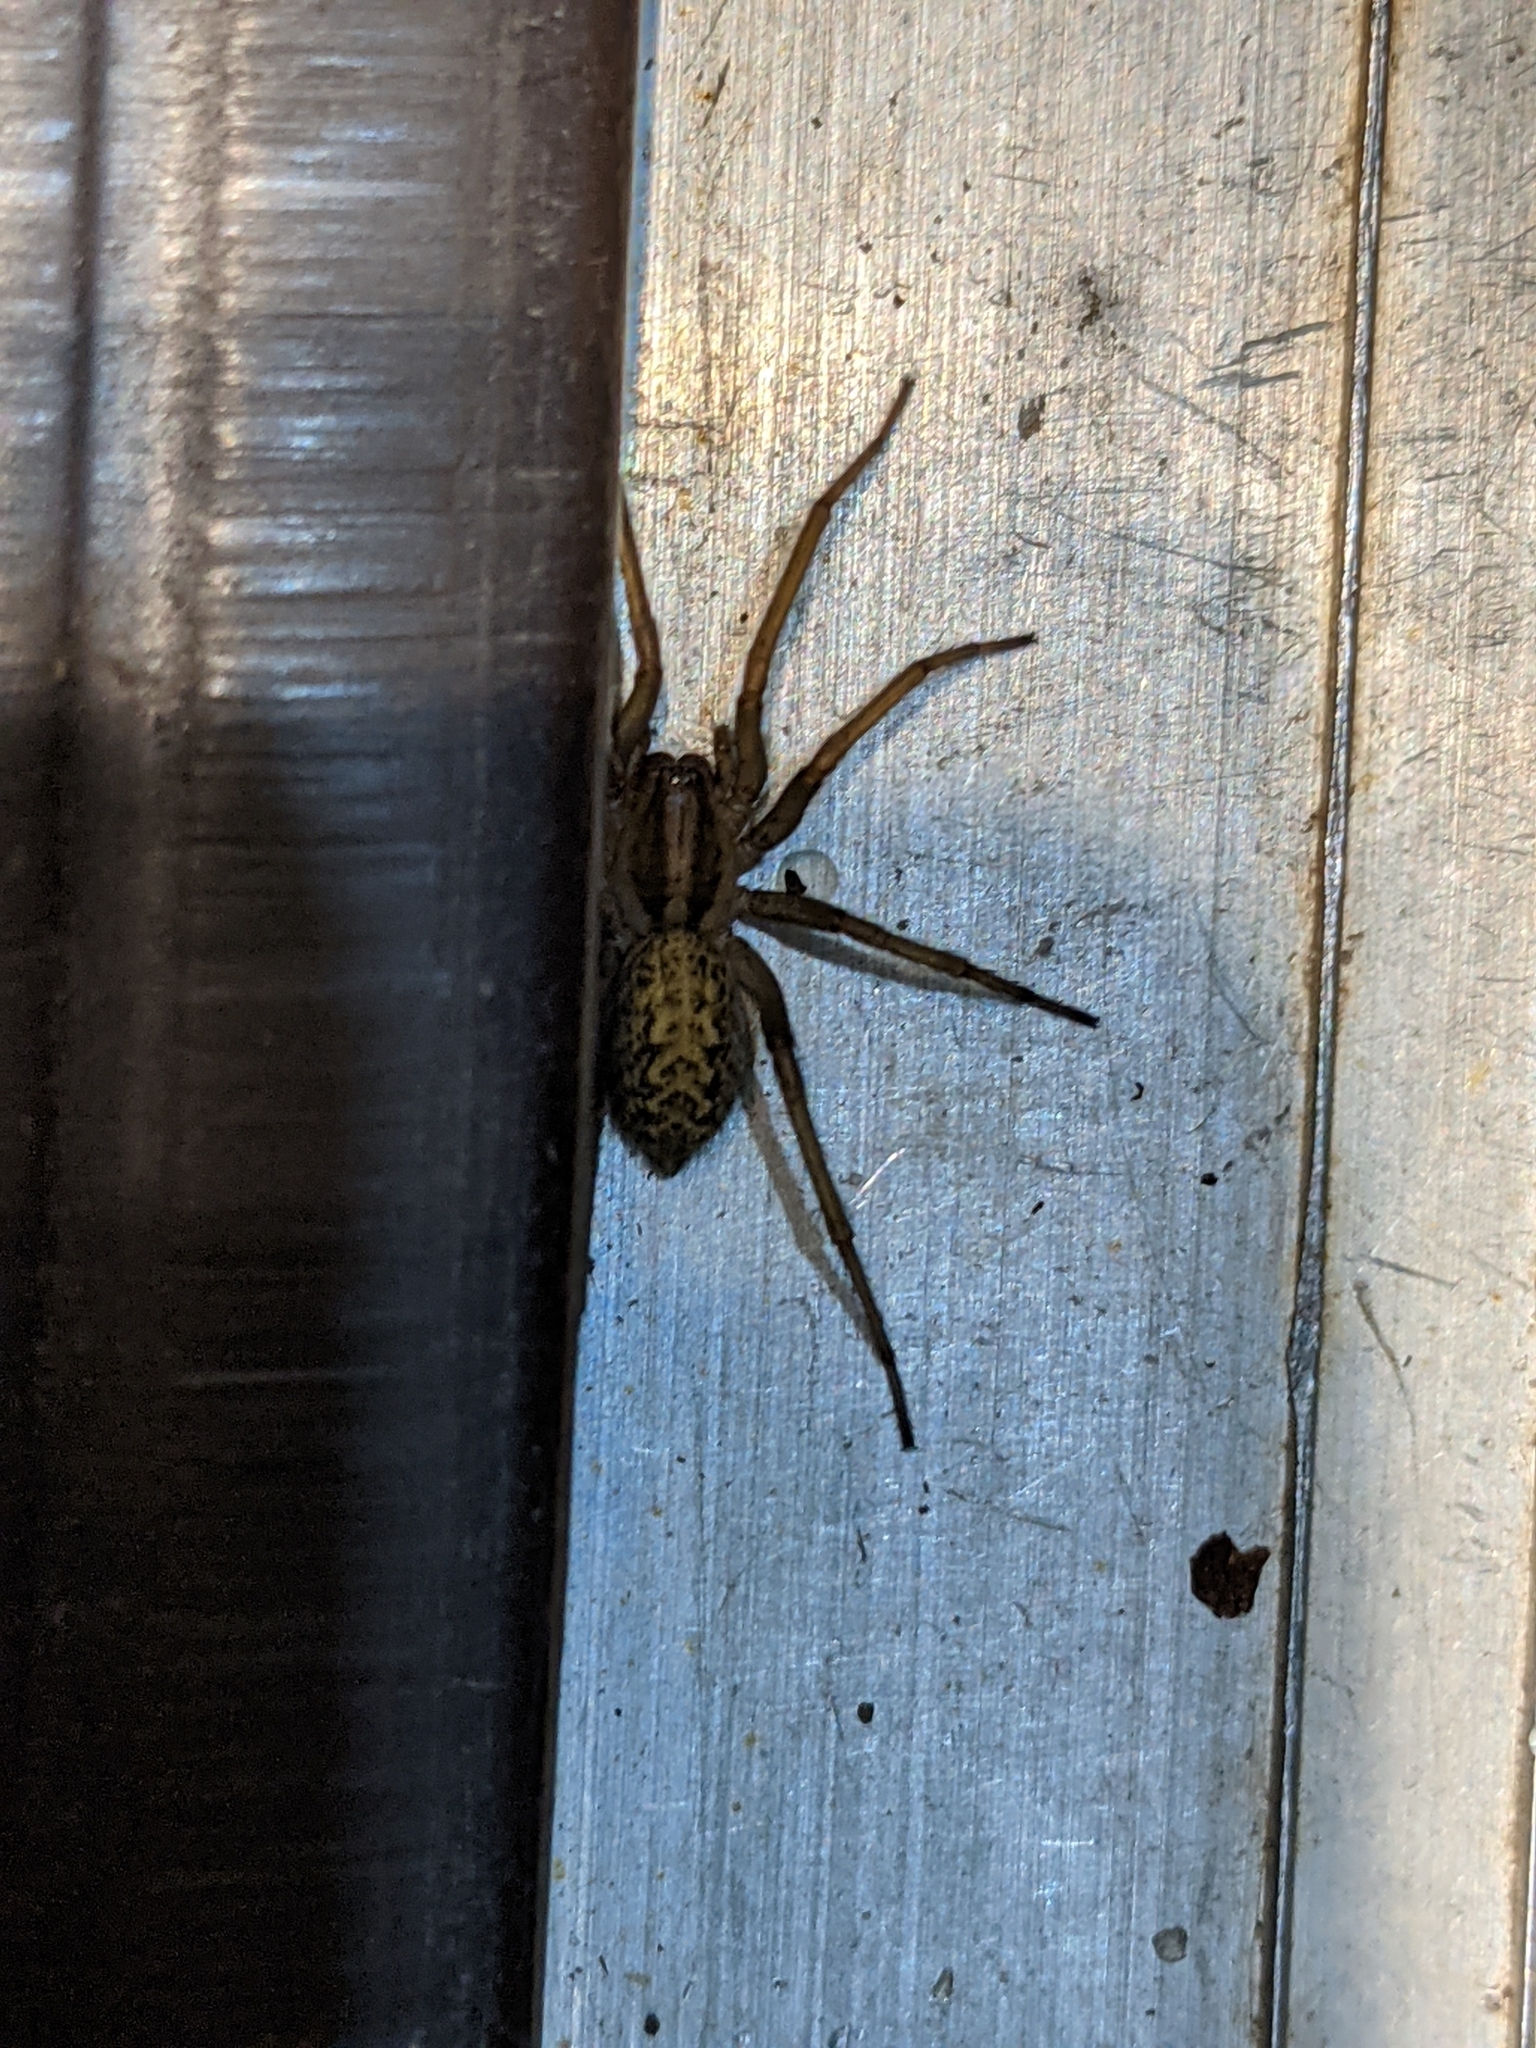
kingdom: Animalia
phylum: Arthropoda
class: Arachnida
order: Araneae
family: Agelenidae
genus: Eratigena
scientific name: Eratigena agrestis
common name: Hobo spider
